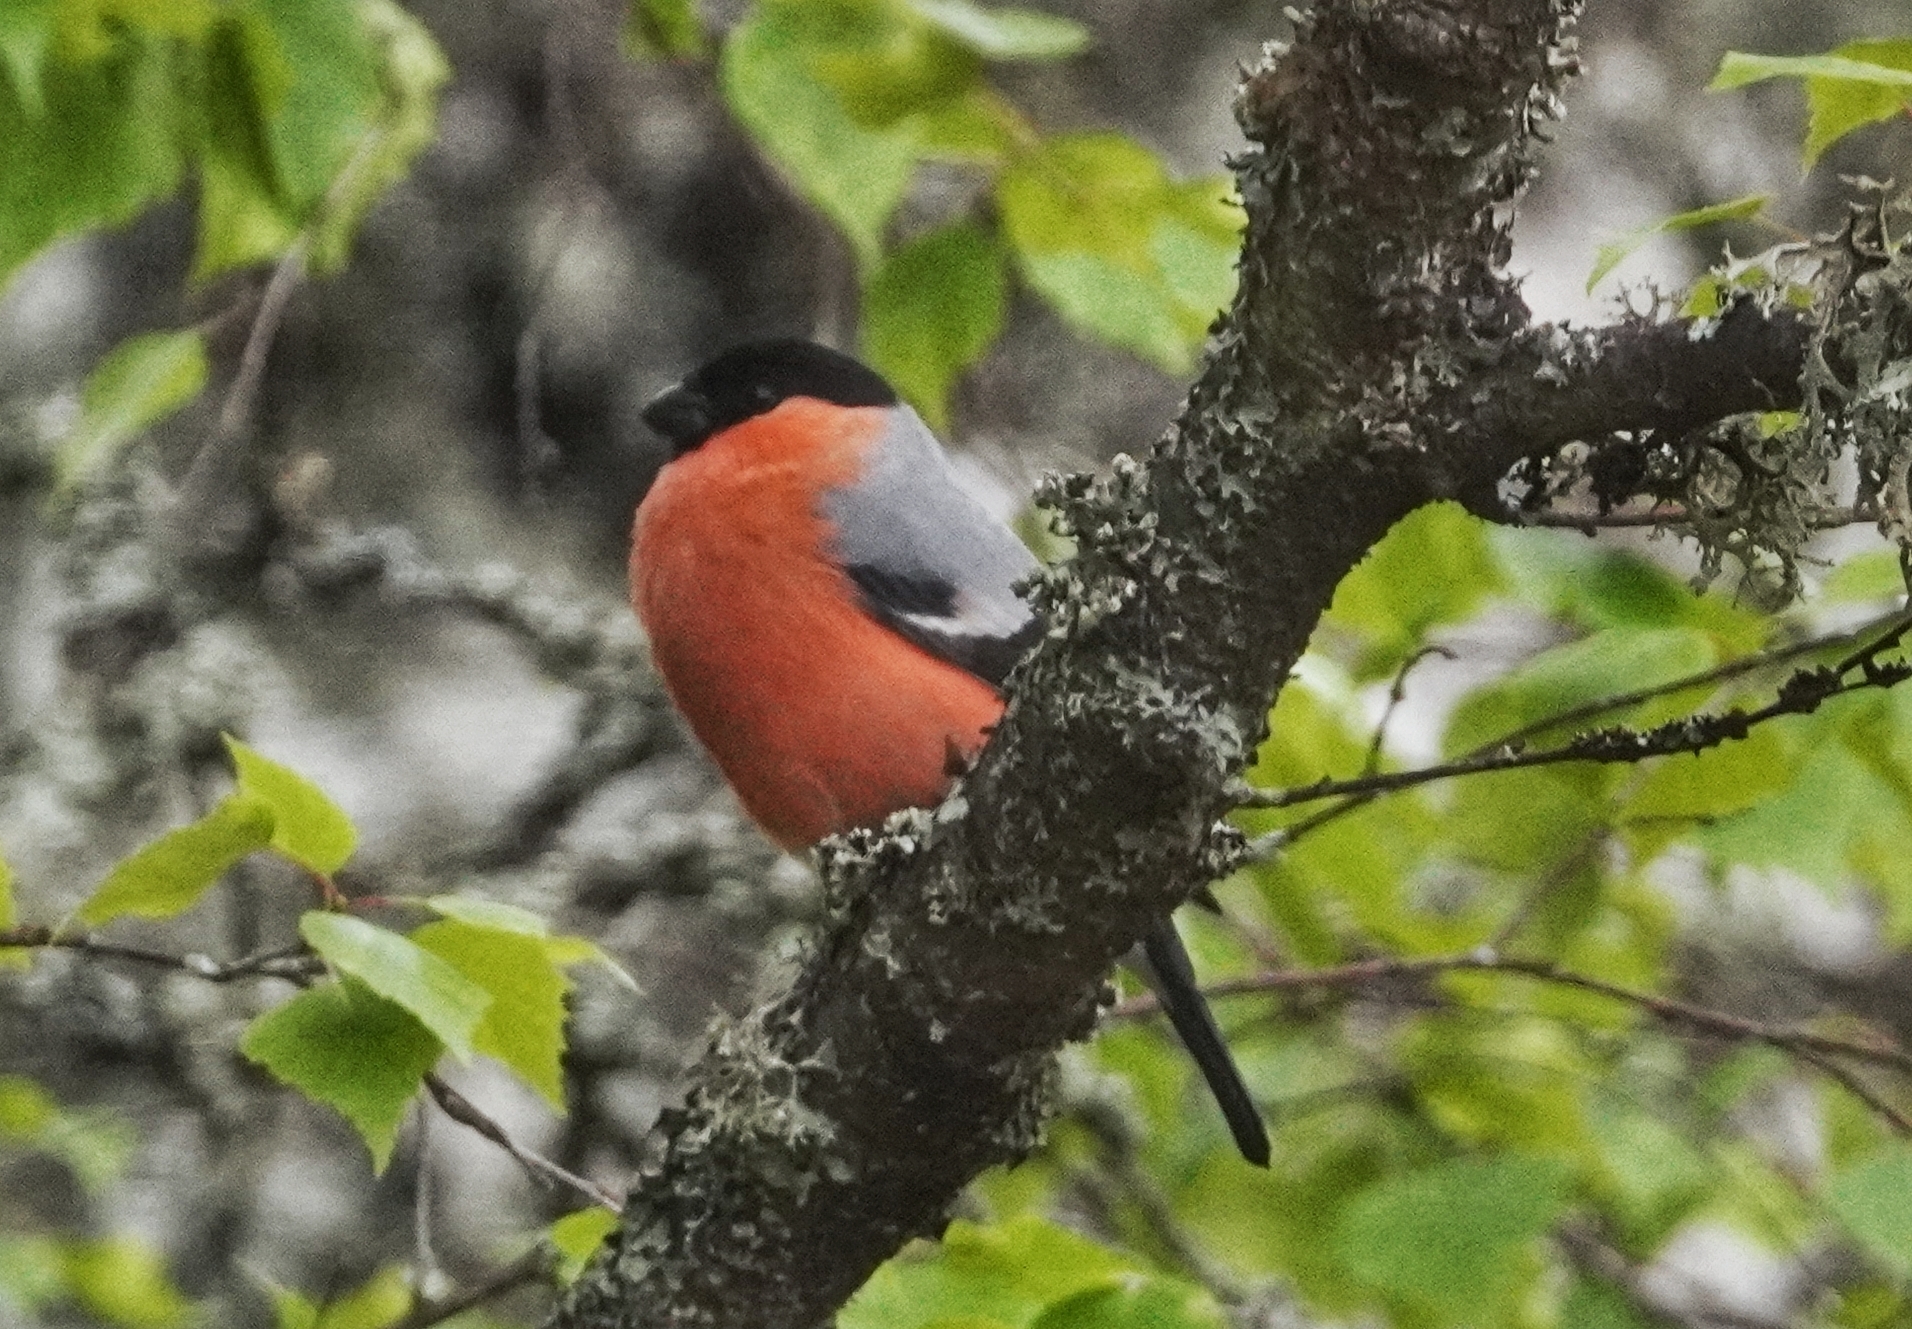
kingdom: Animalia
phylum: Chordata
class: Aves
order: Passeriformes
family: Fringillidae
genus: Pyrrhula
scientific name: Pyrrhula pyrrhula
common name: Eurasian bullfinch
